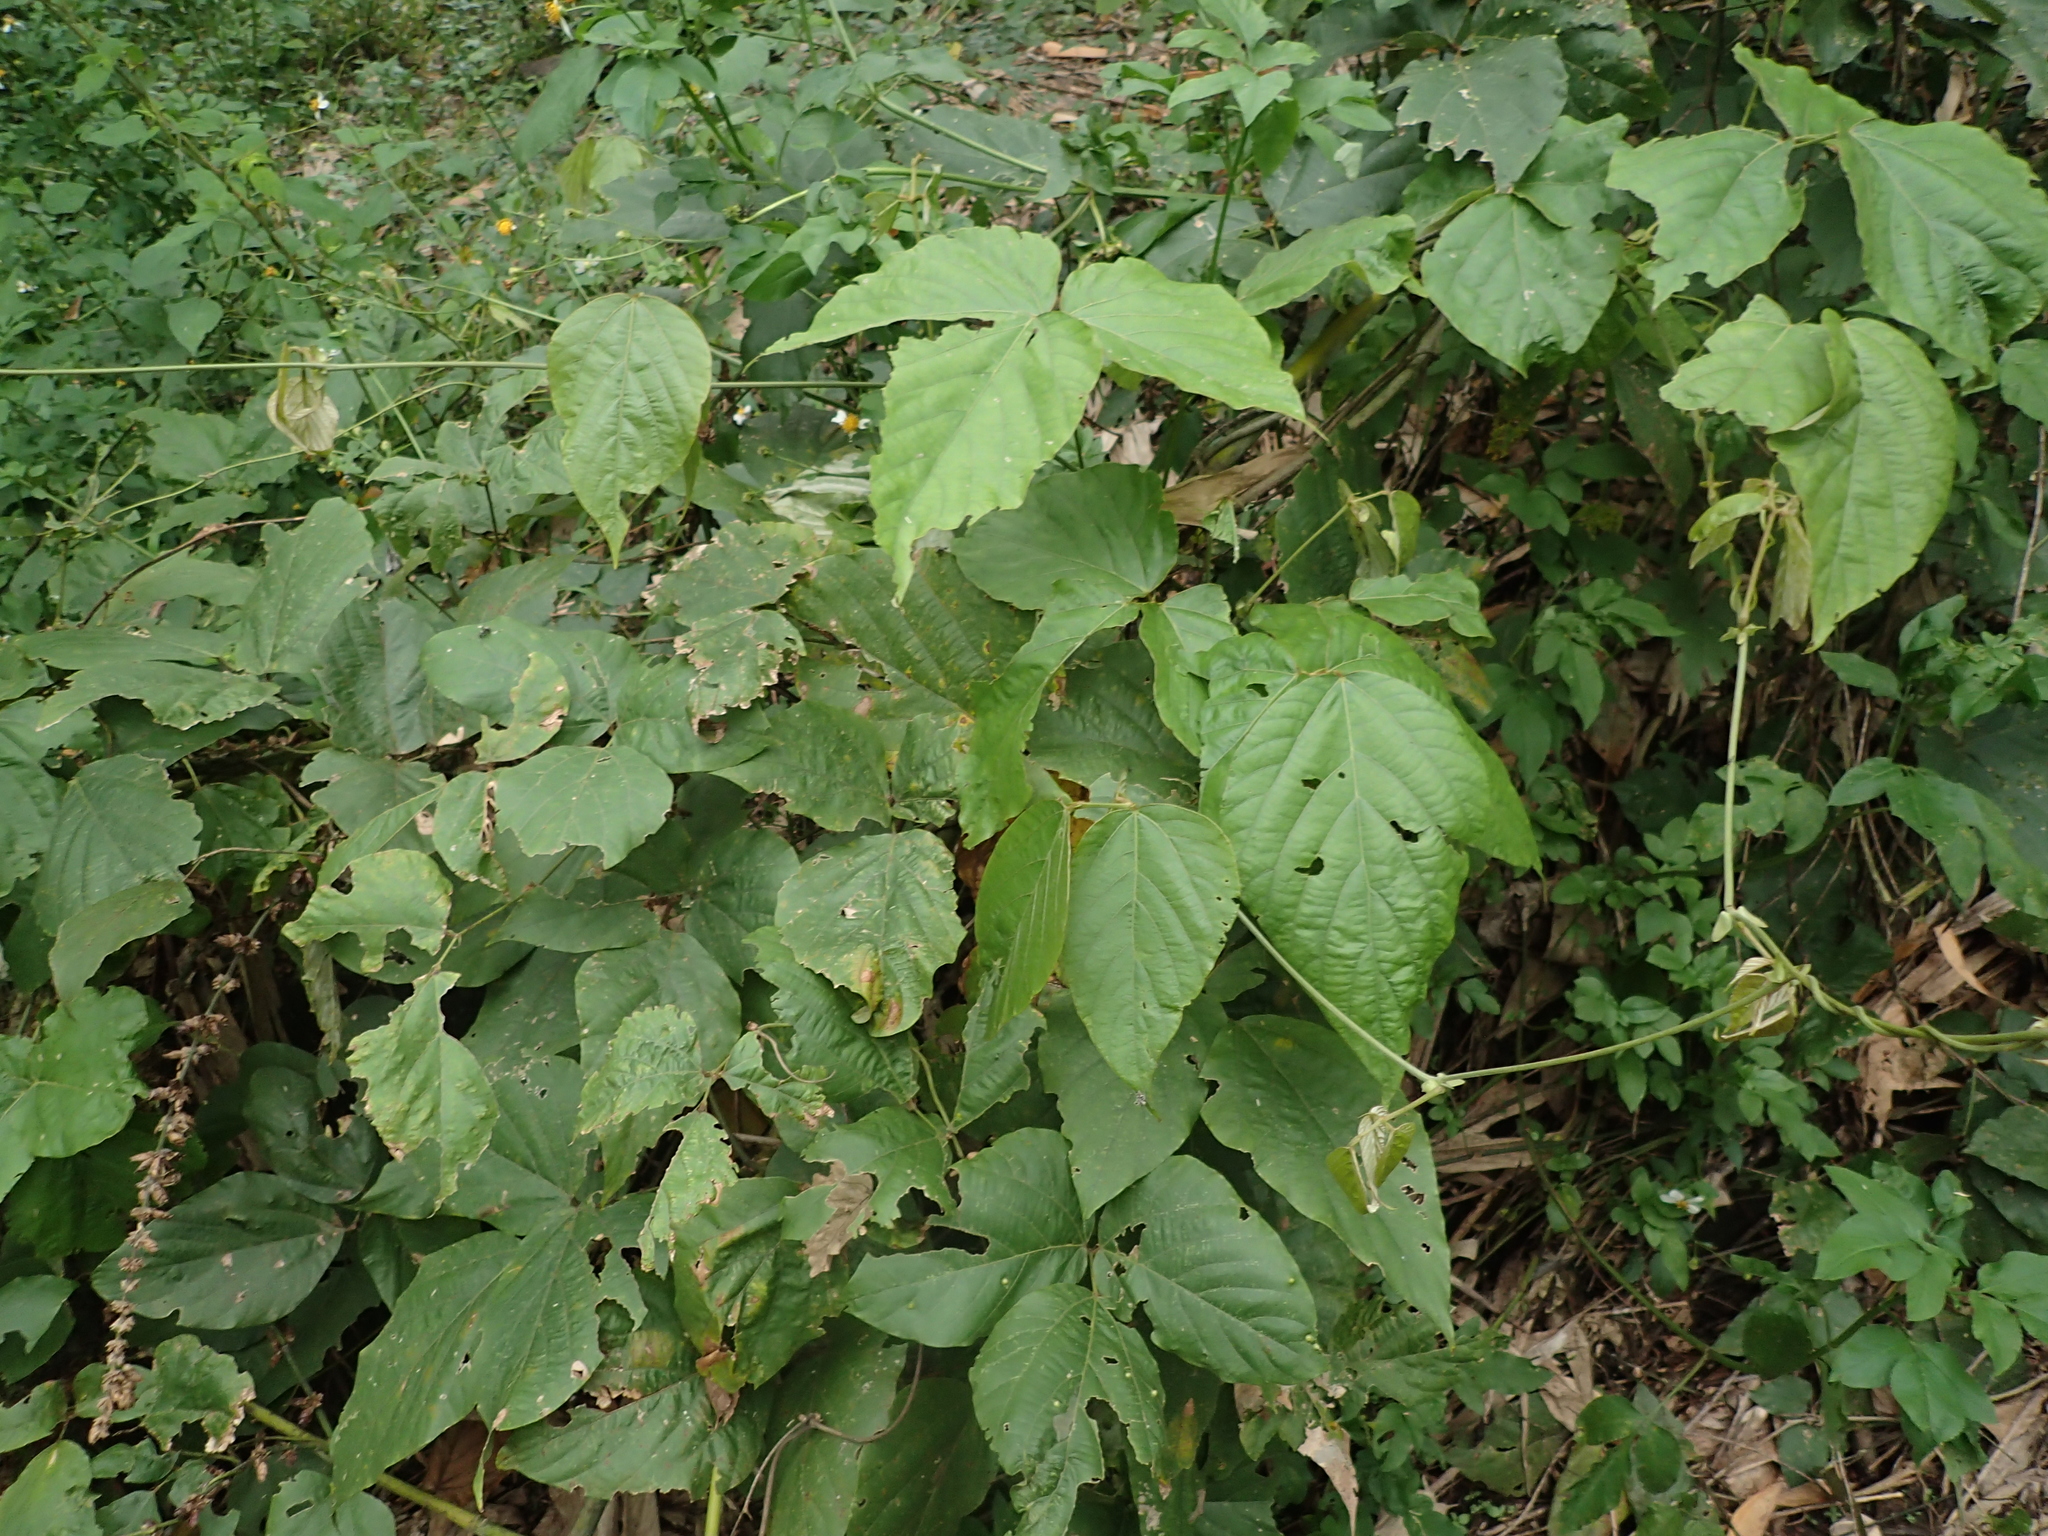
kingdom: Plantae
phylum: Tracheophyta
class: Magnoliopsida
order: Fabales
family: Fabaceae
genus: Pueraria
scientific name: Pueraria montana
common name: Kudzu
